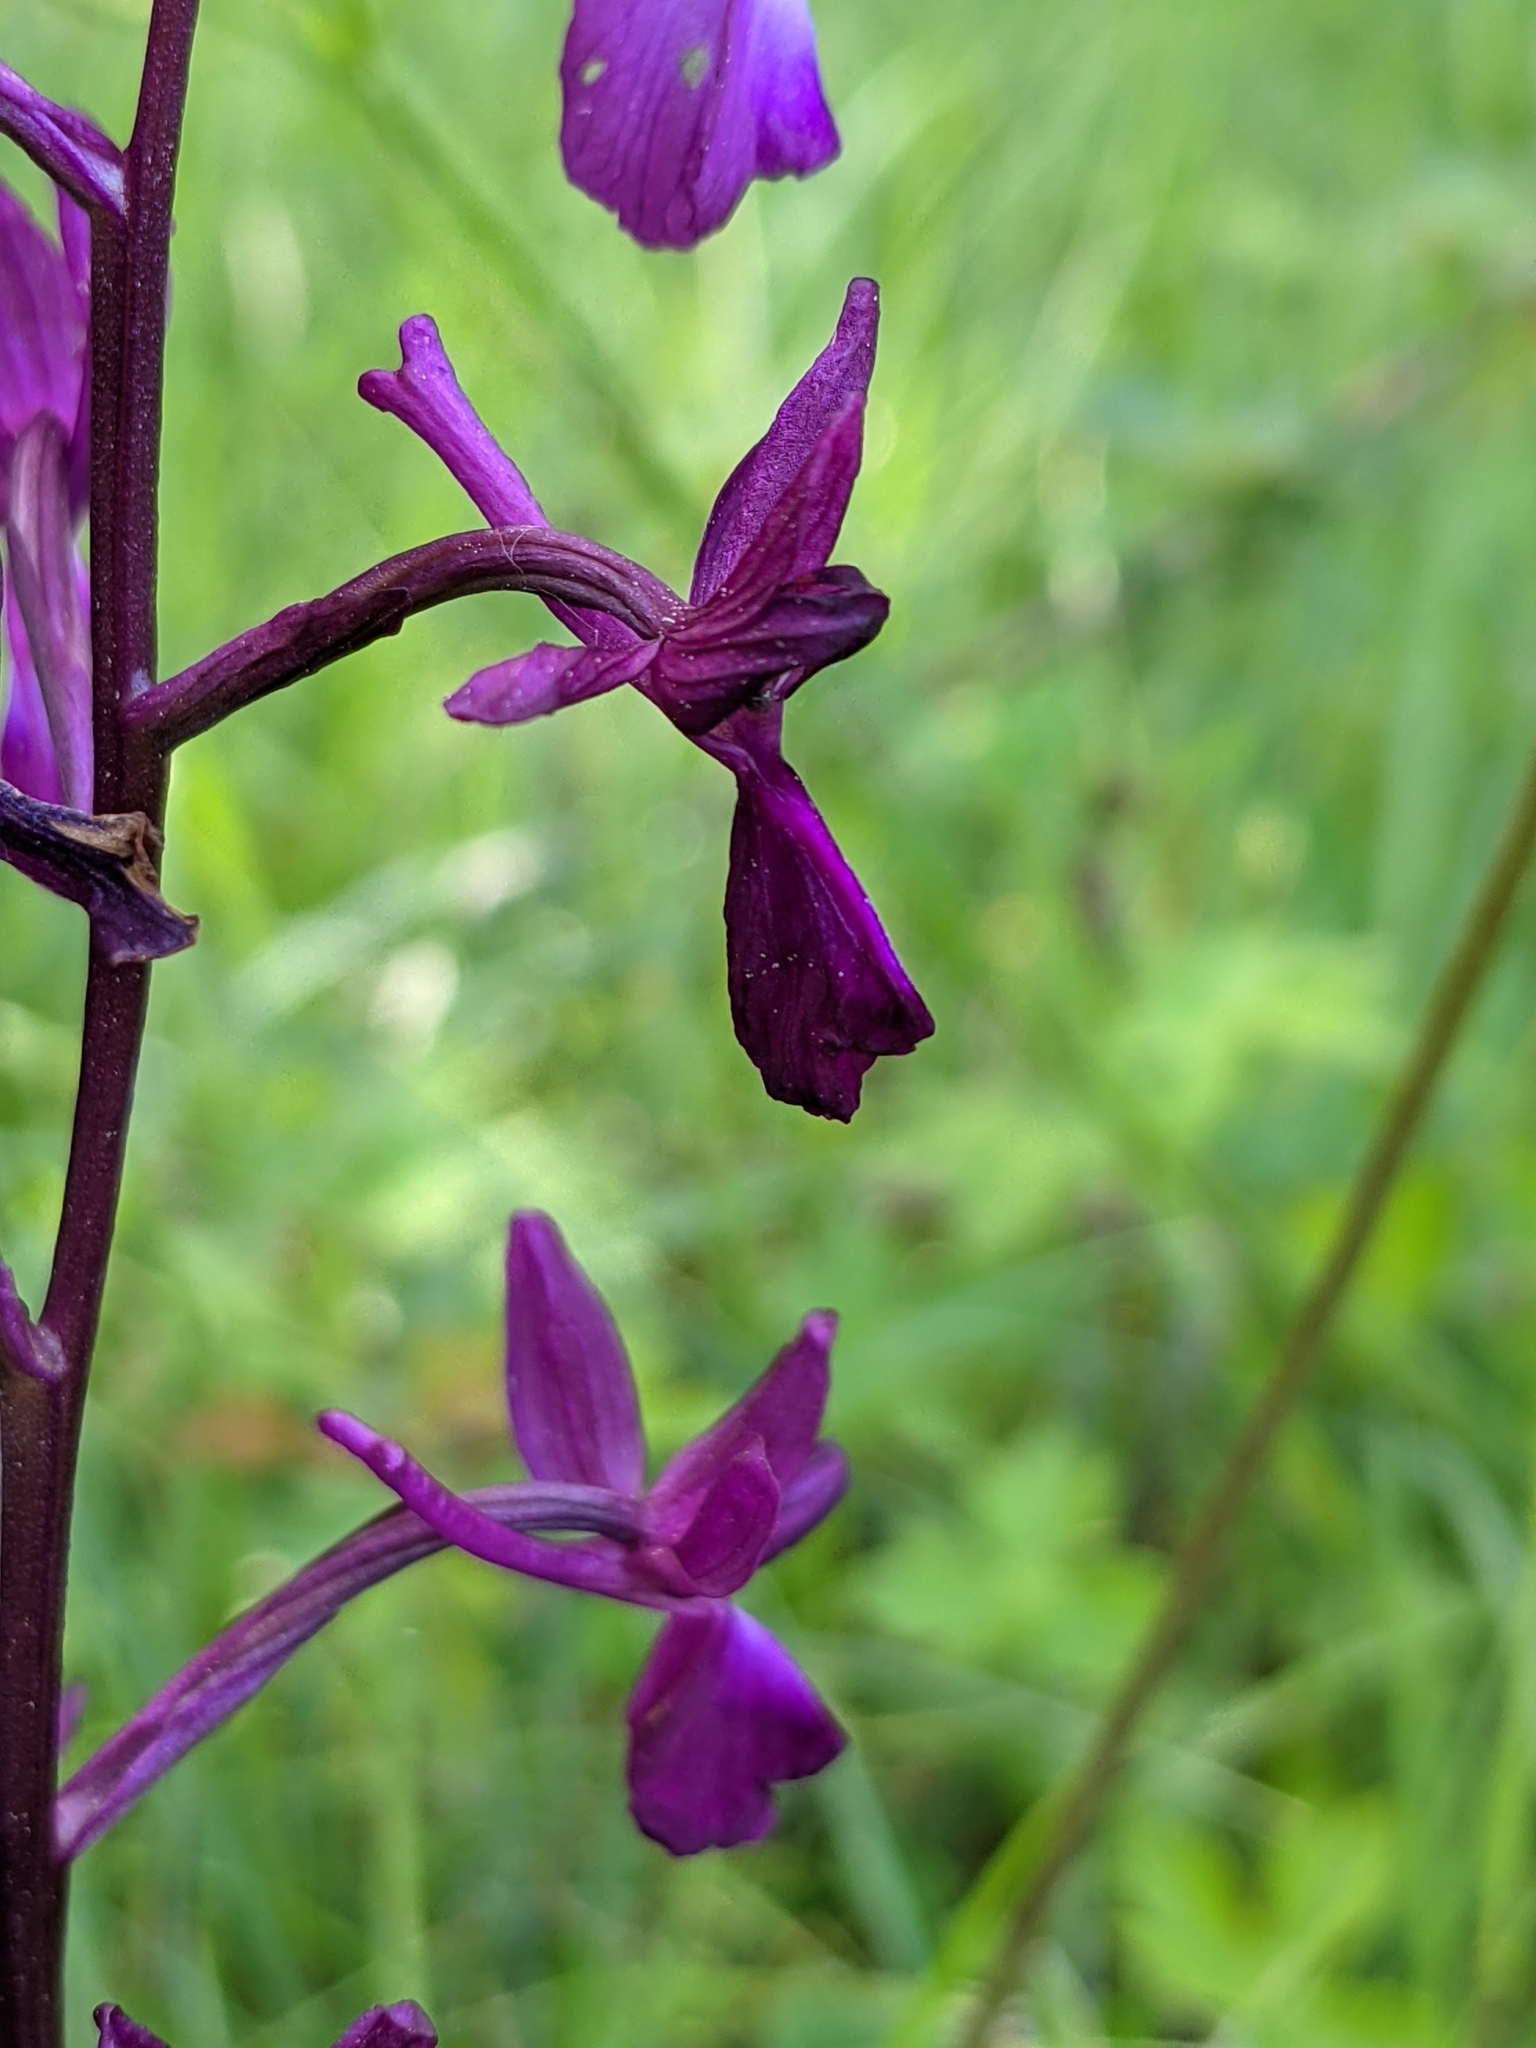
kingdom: Plantae
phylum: Tracheophyta
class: Liliopsida
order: Asparagales
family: Orchidaceae
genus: Anacamptis
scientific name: Anacamptis laxiflora
